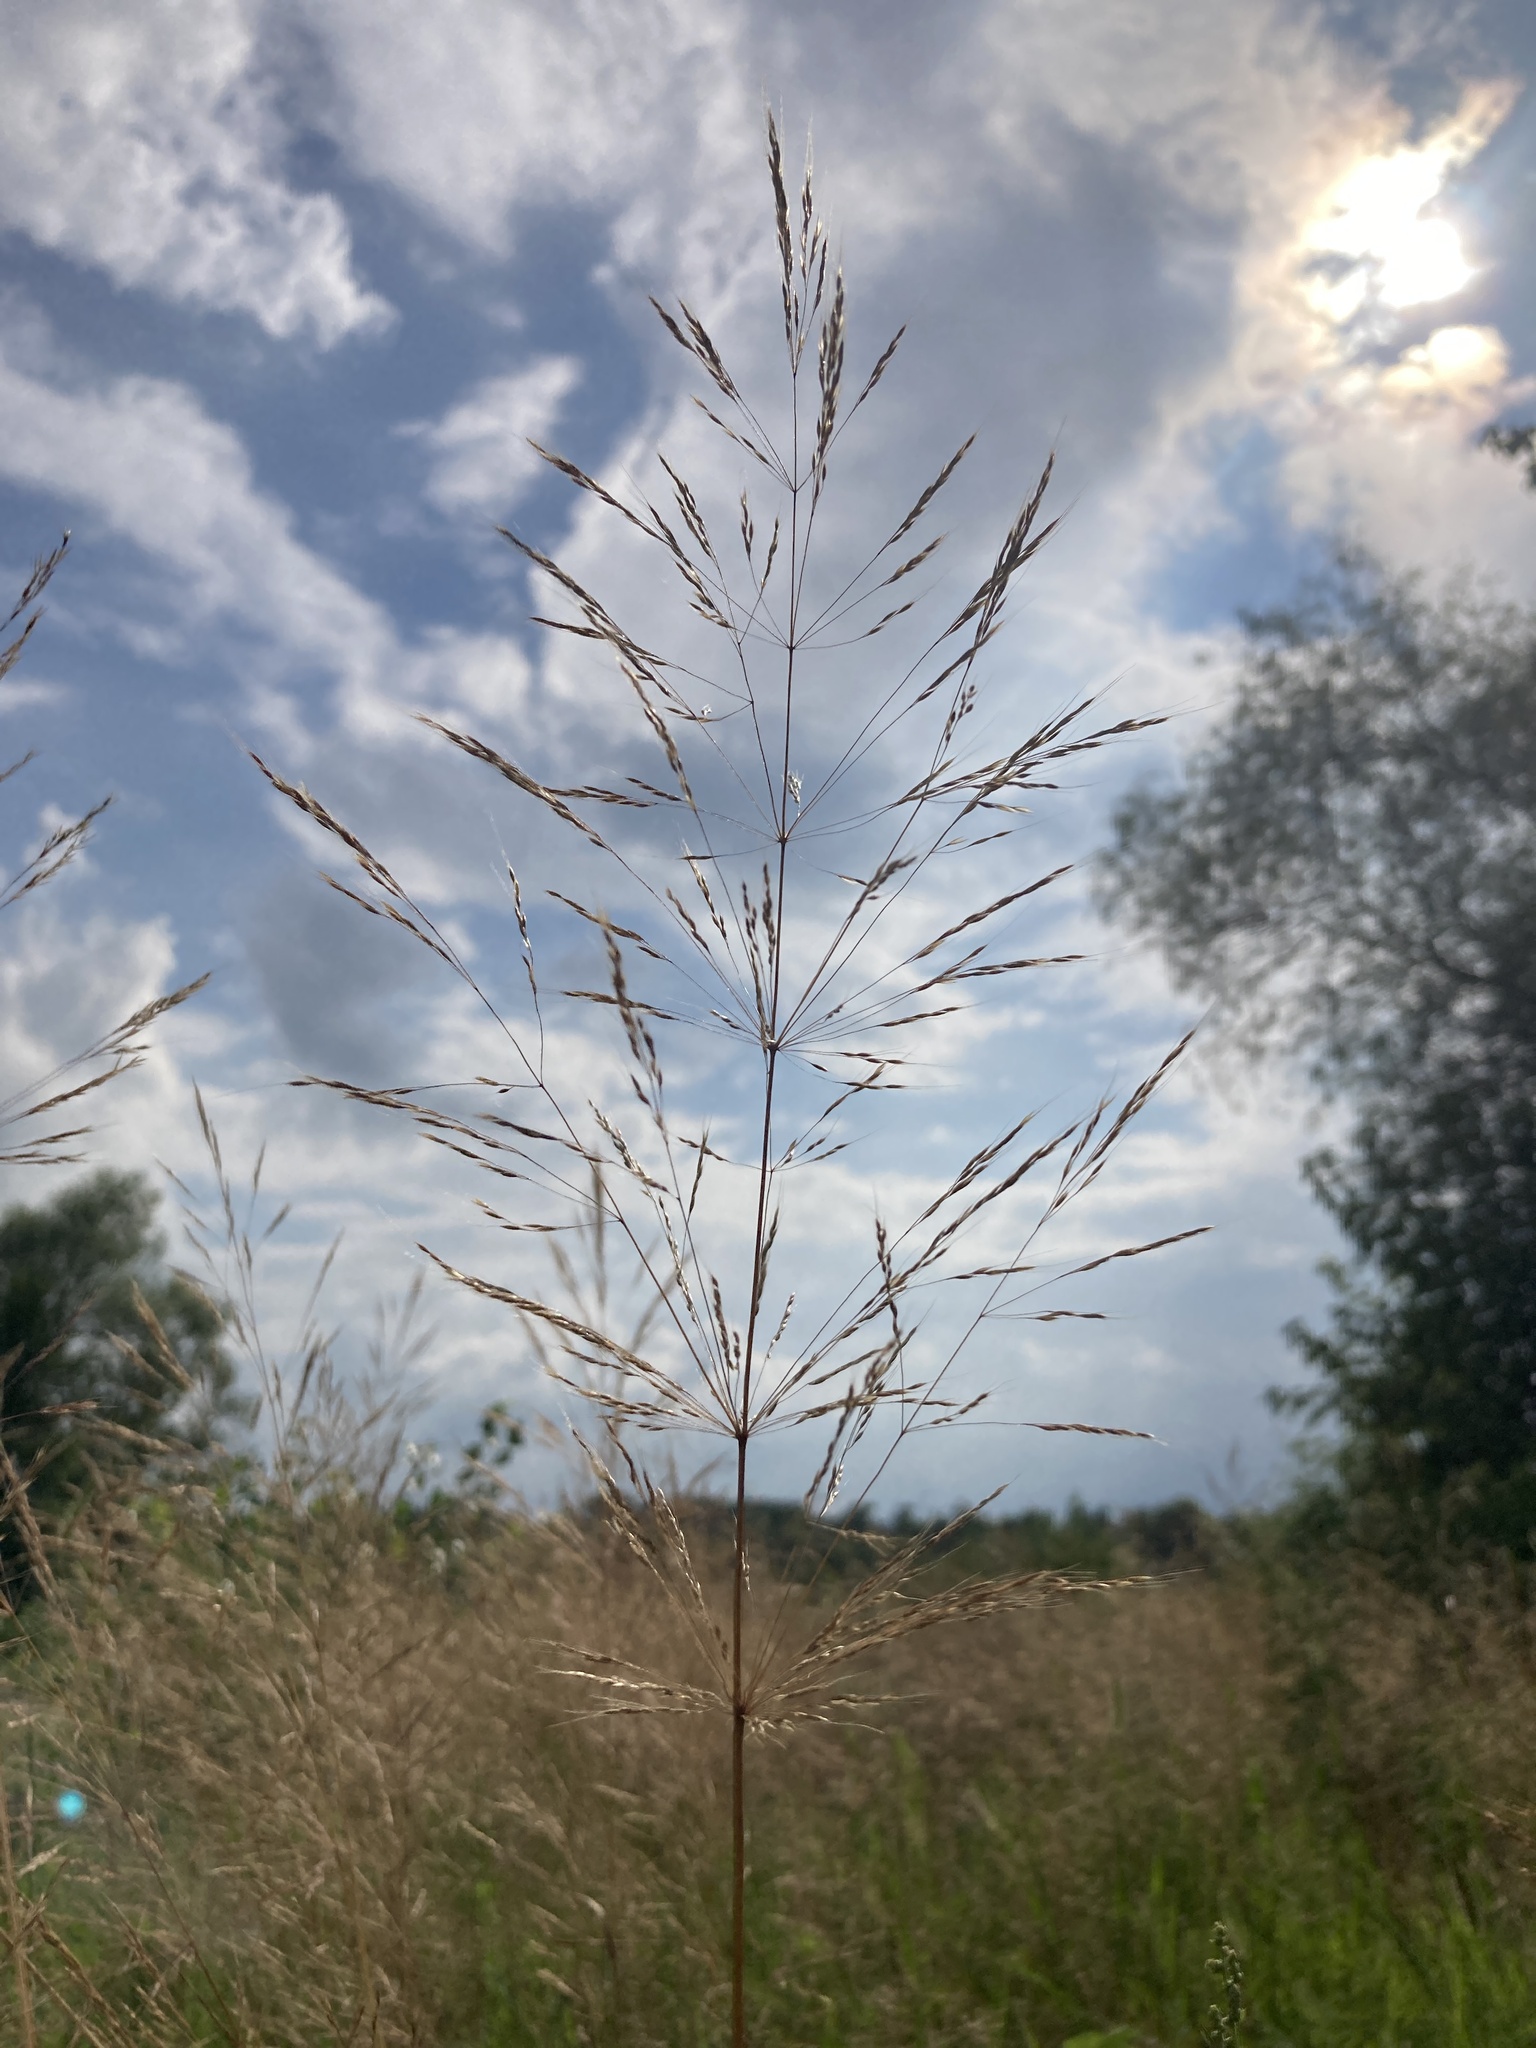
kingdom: Plantae
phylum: Tracheophyta
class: Liliopsida
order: Poales
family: Poaceae
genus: Apera
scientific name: Apera spica-venti
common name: Loose silky-bent
